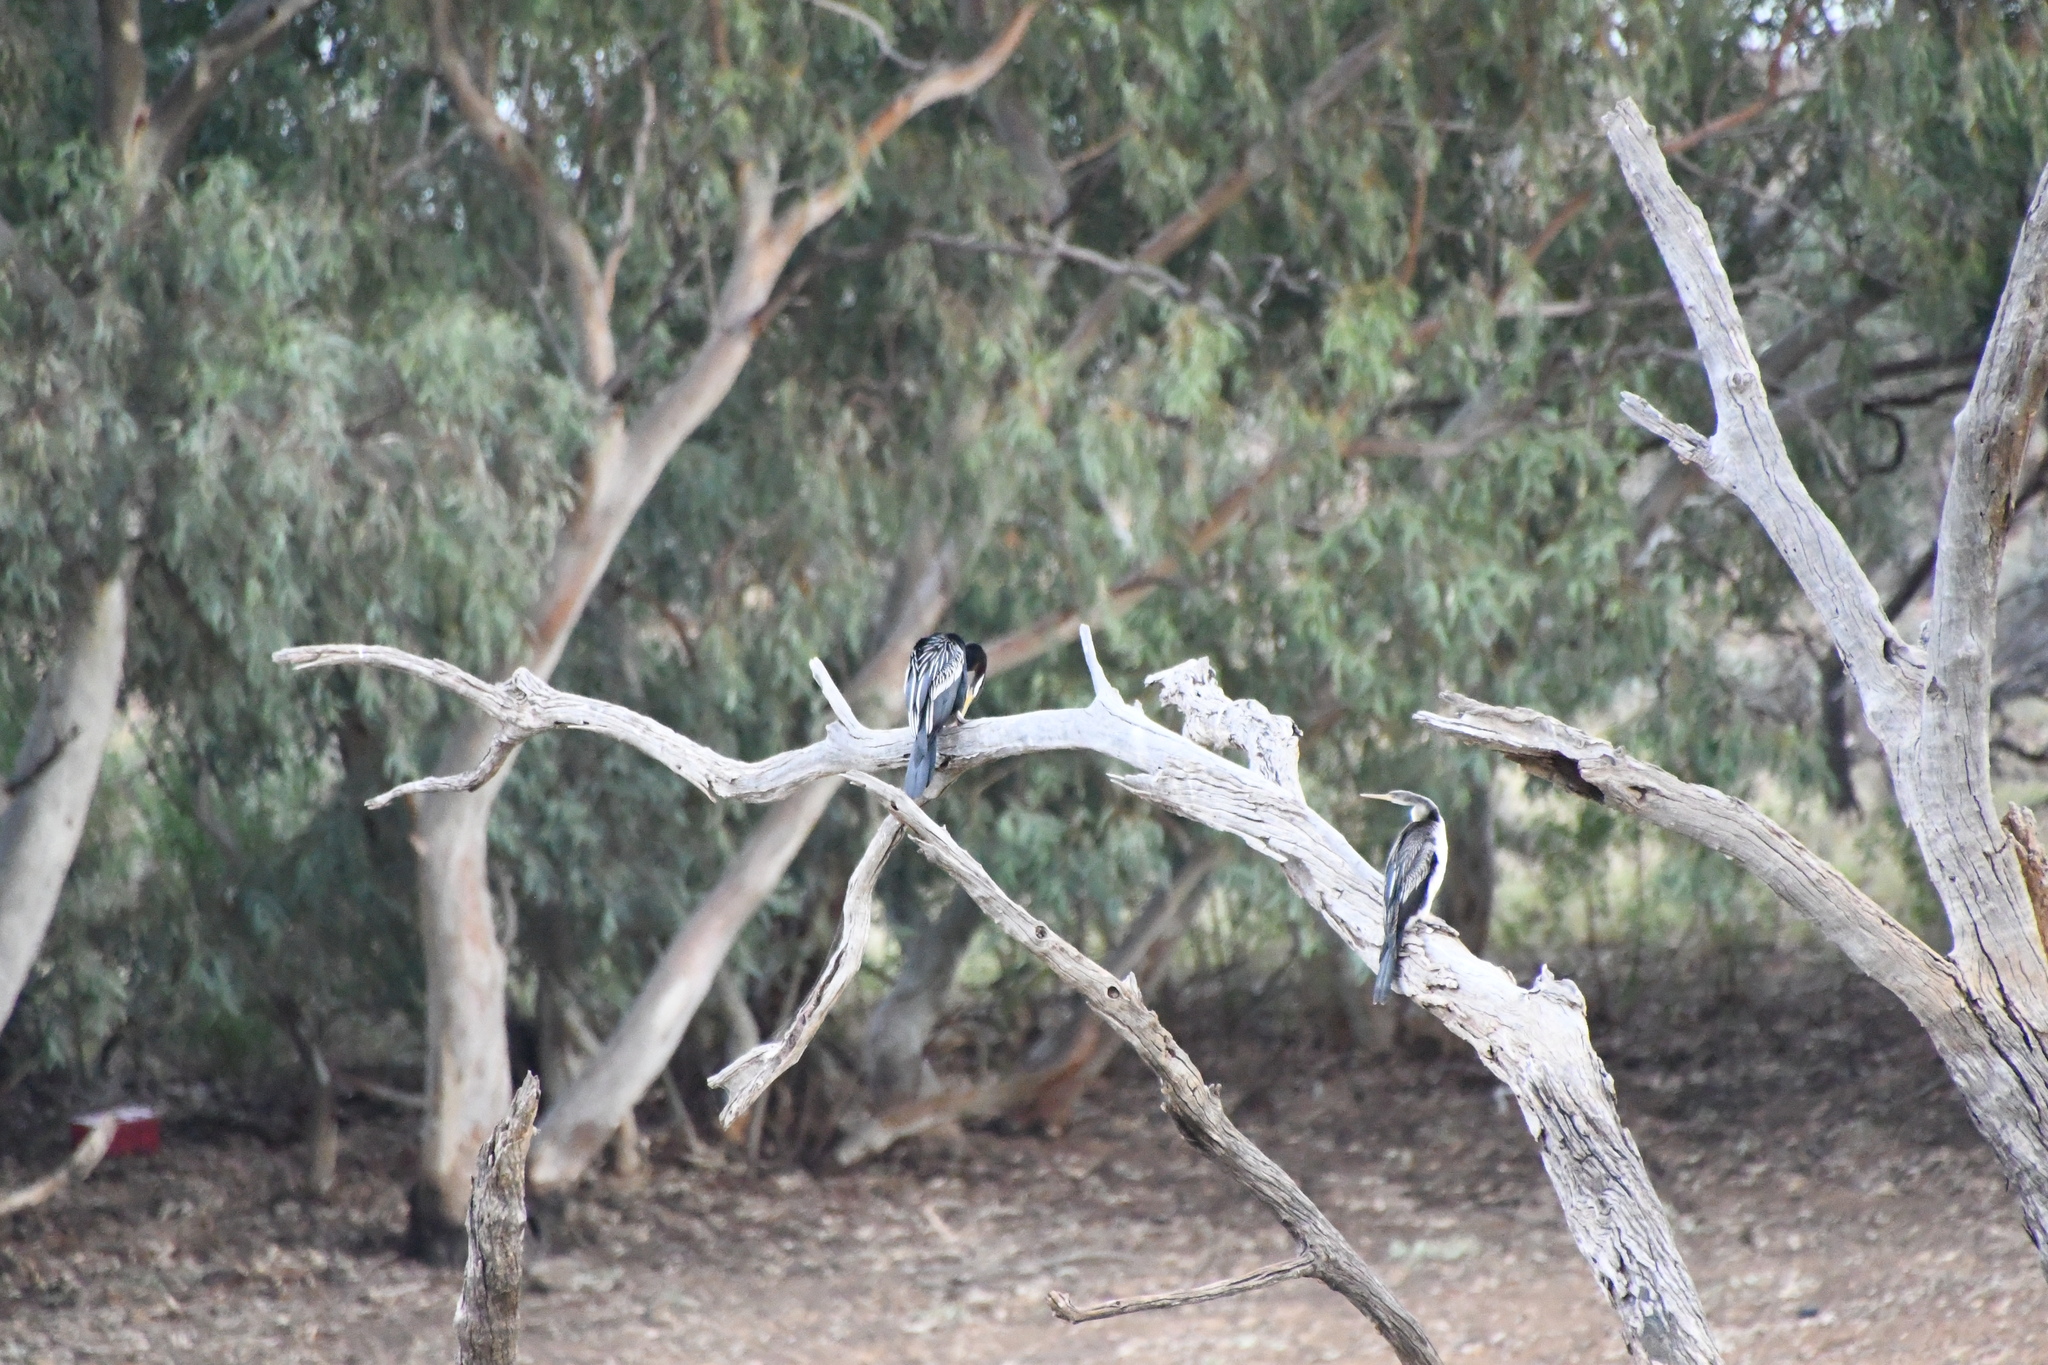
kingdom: Animalia
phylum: Chordata
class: Aves
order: Suliformes
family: Anhingidae
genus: Anhinga
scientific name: Anhinga novaehollandiae
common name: Australasian darter
